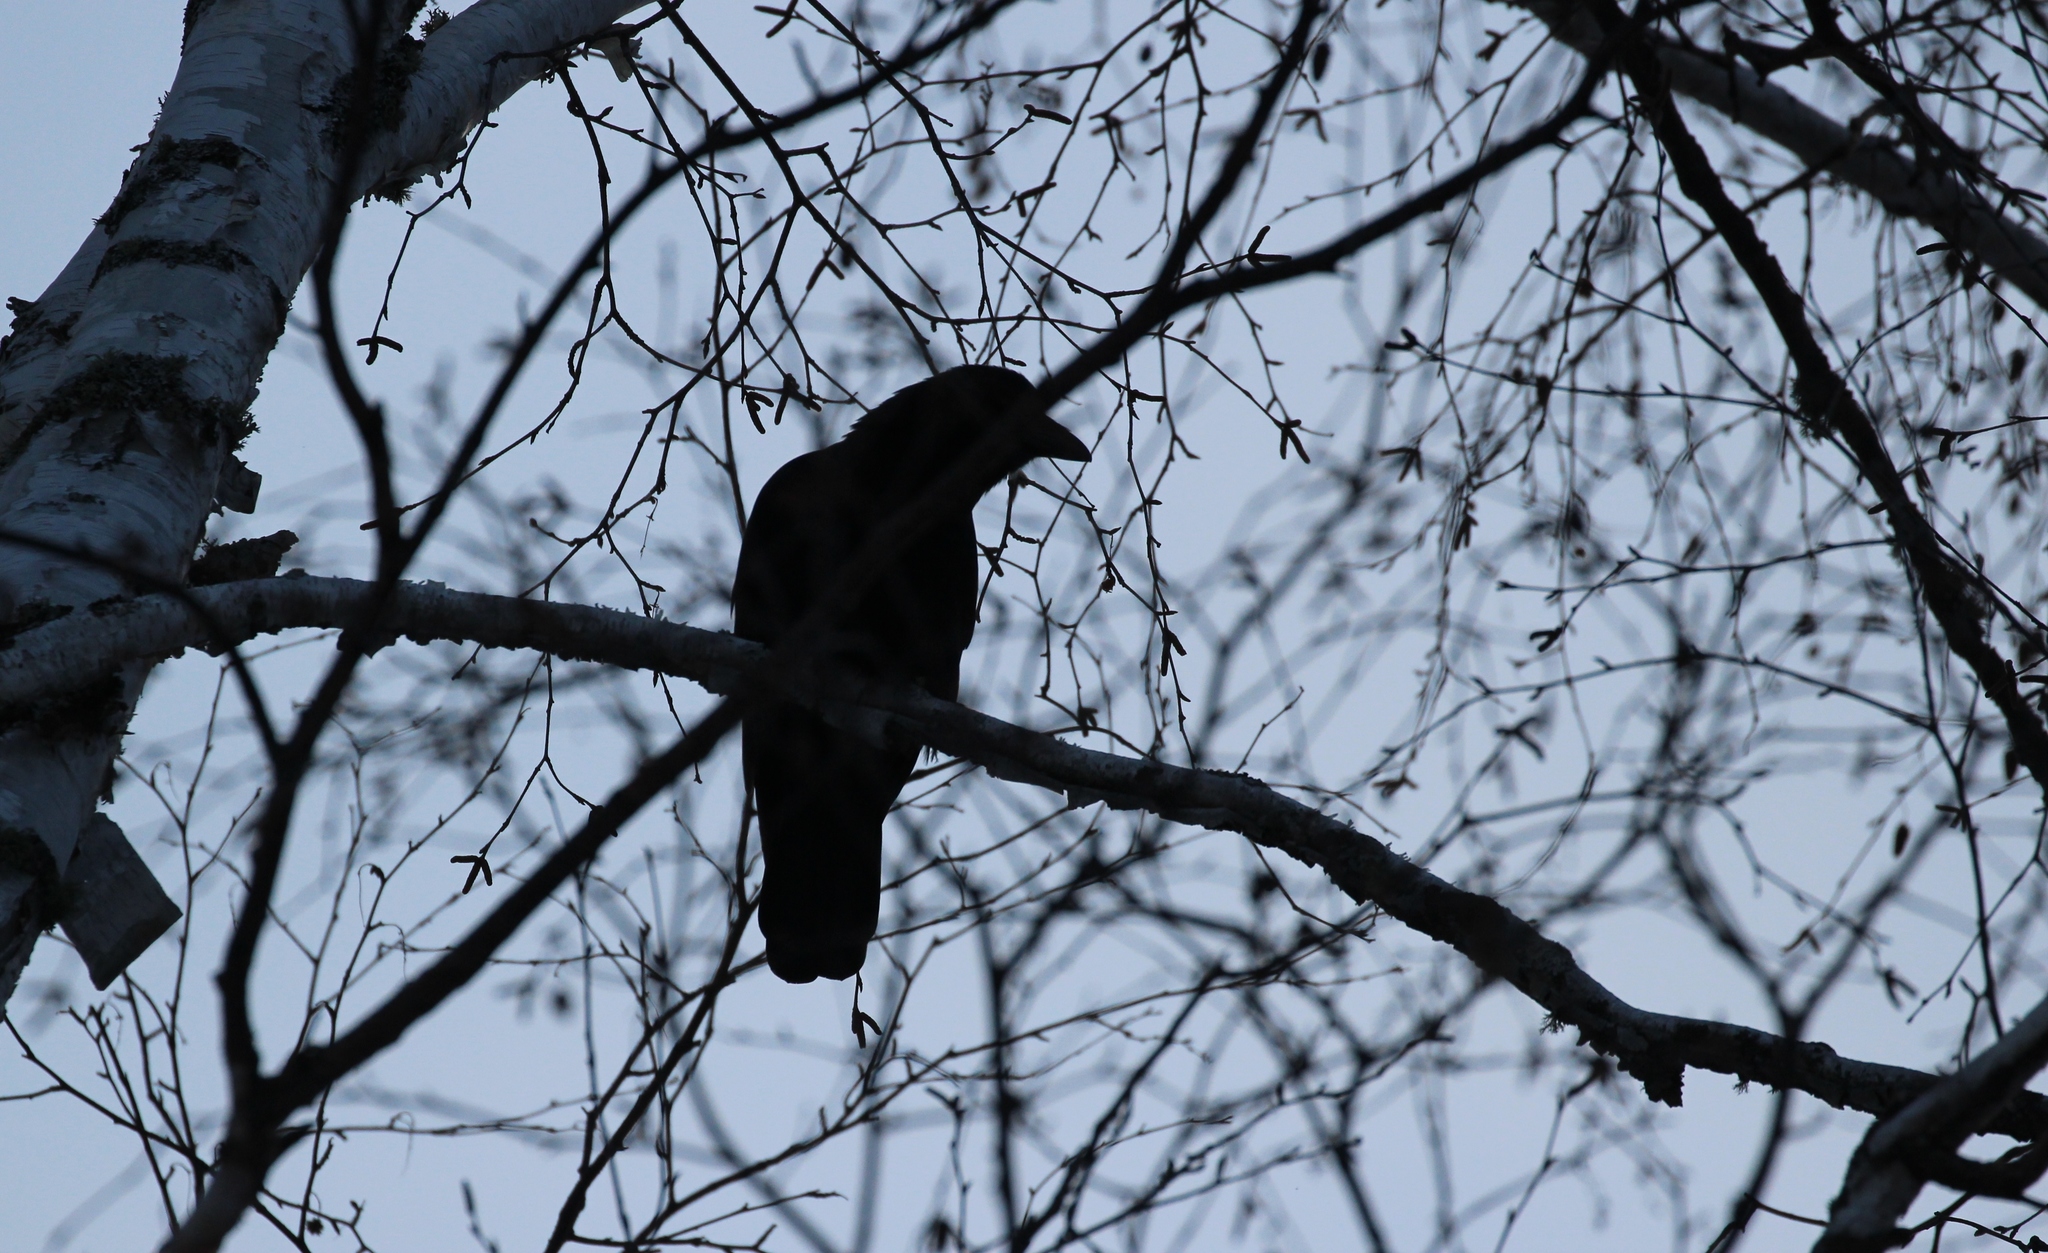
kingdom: Animalia
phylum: Chordata
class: Aves
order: Passeriformes
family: Corvidae
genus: Corvus
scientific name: Corvus brachyrhynchos
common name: American crow
